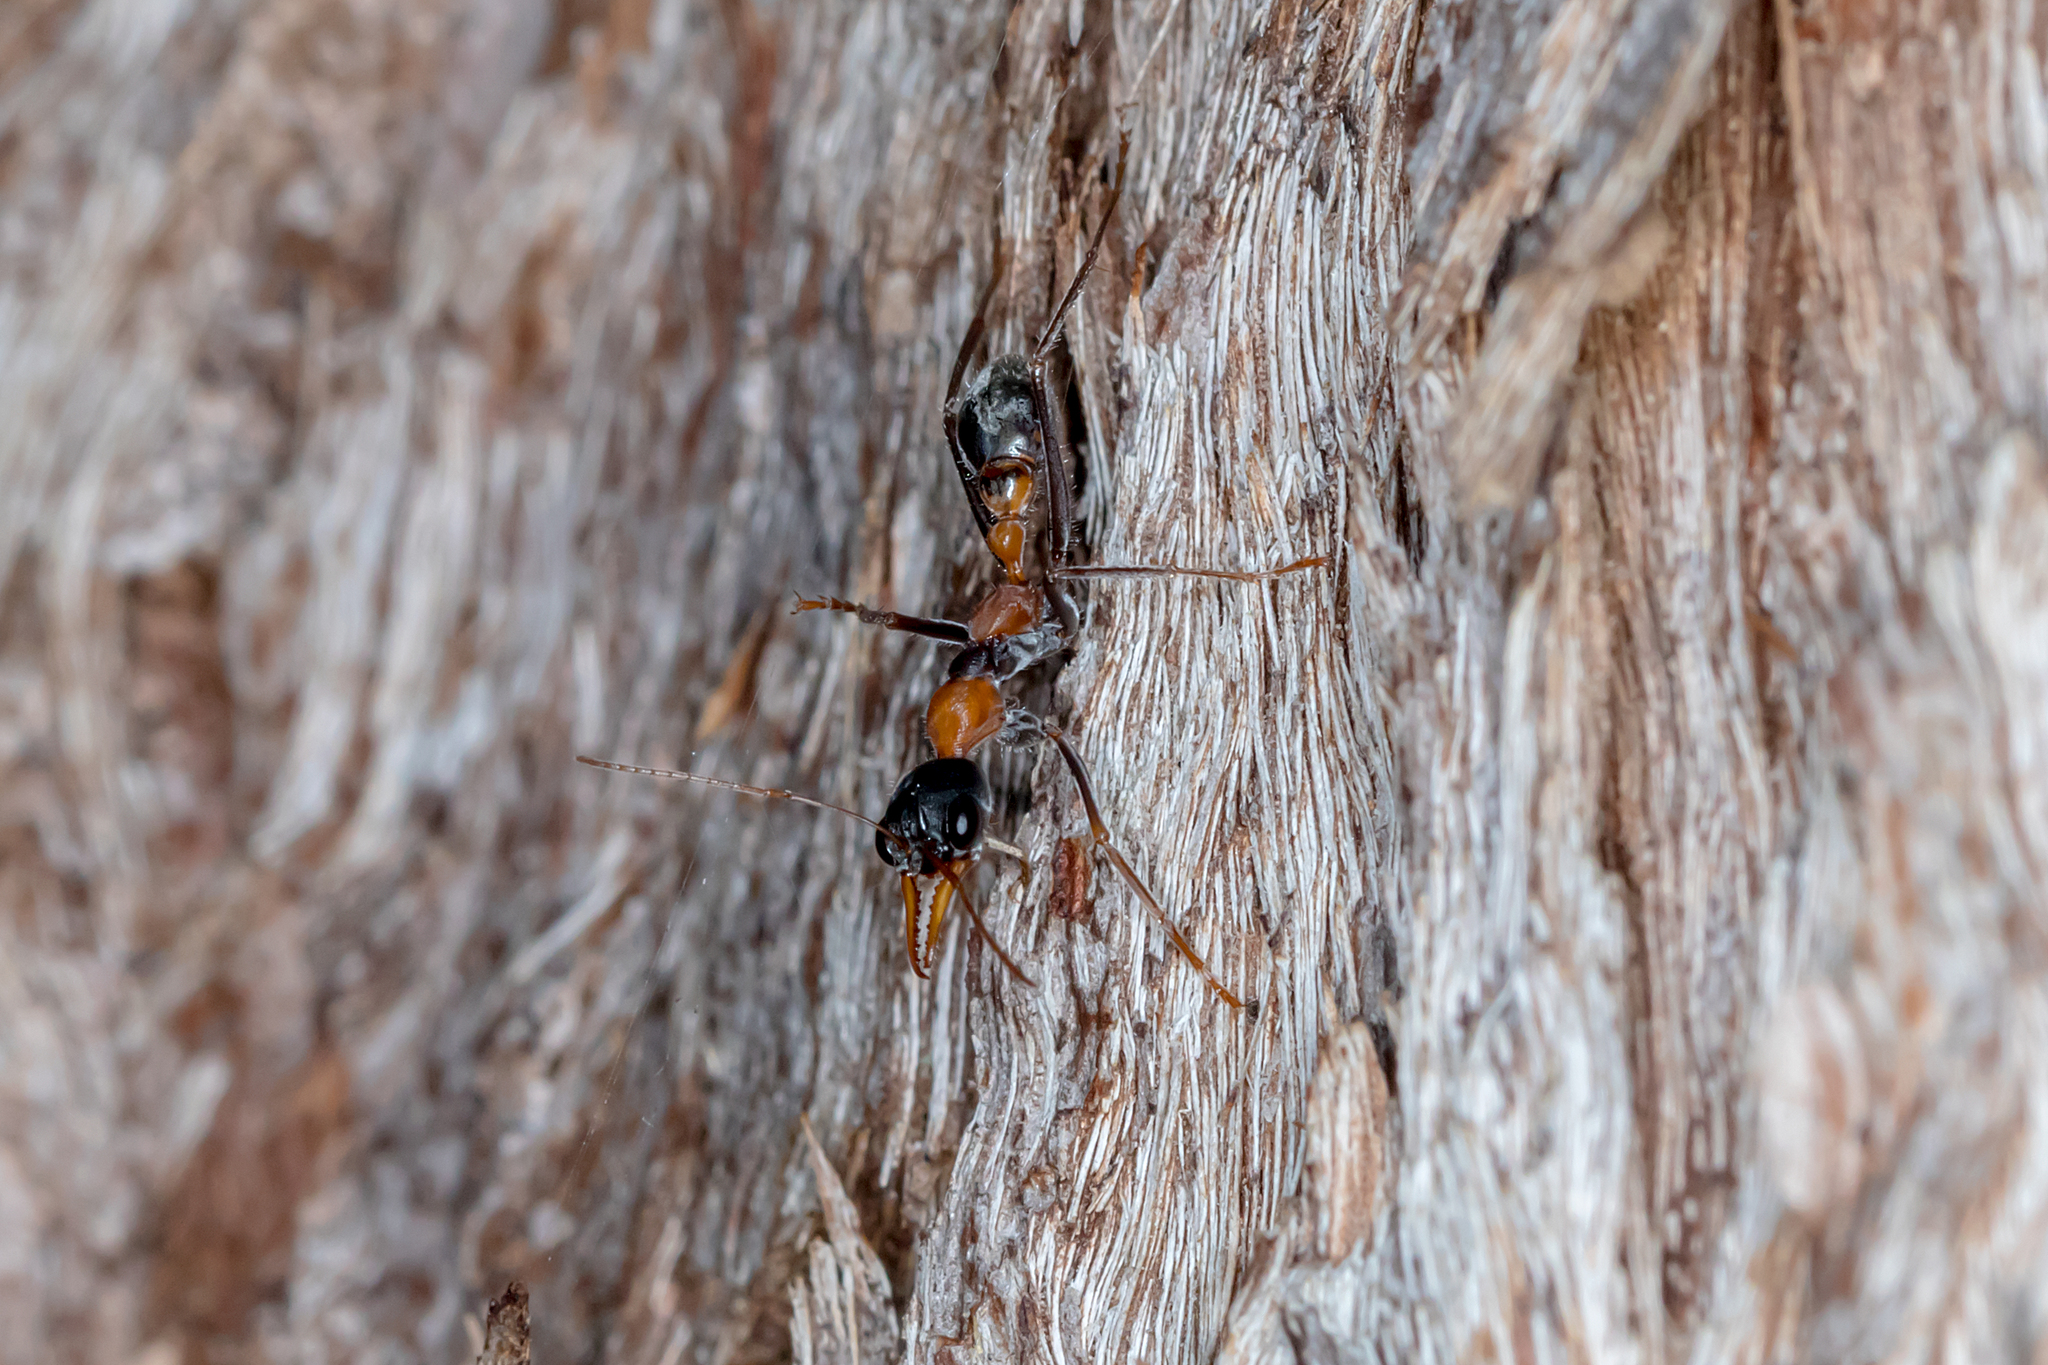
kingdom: Animalia
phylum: Arthropoda
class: Insecta
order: Hymenoptera
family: Formicidae
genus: Myrmecia
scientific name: Myrmecia nigrocincta
